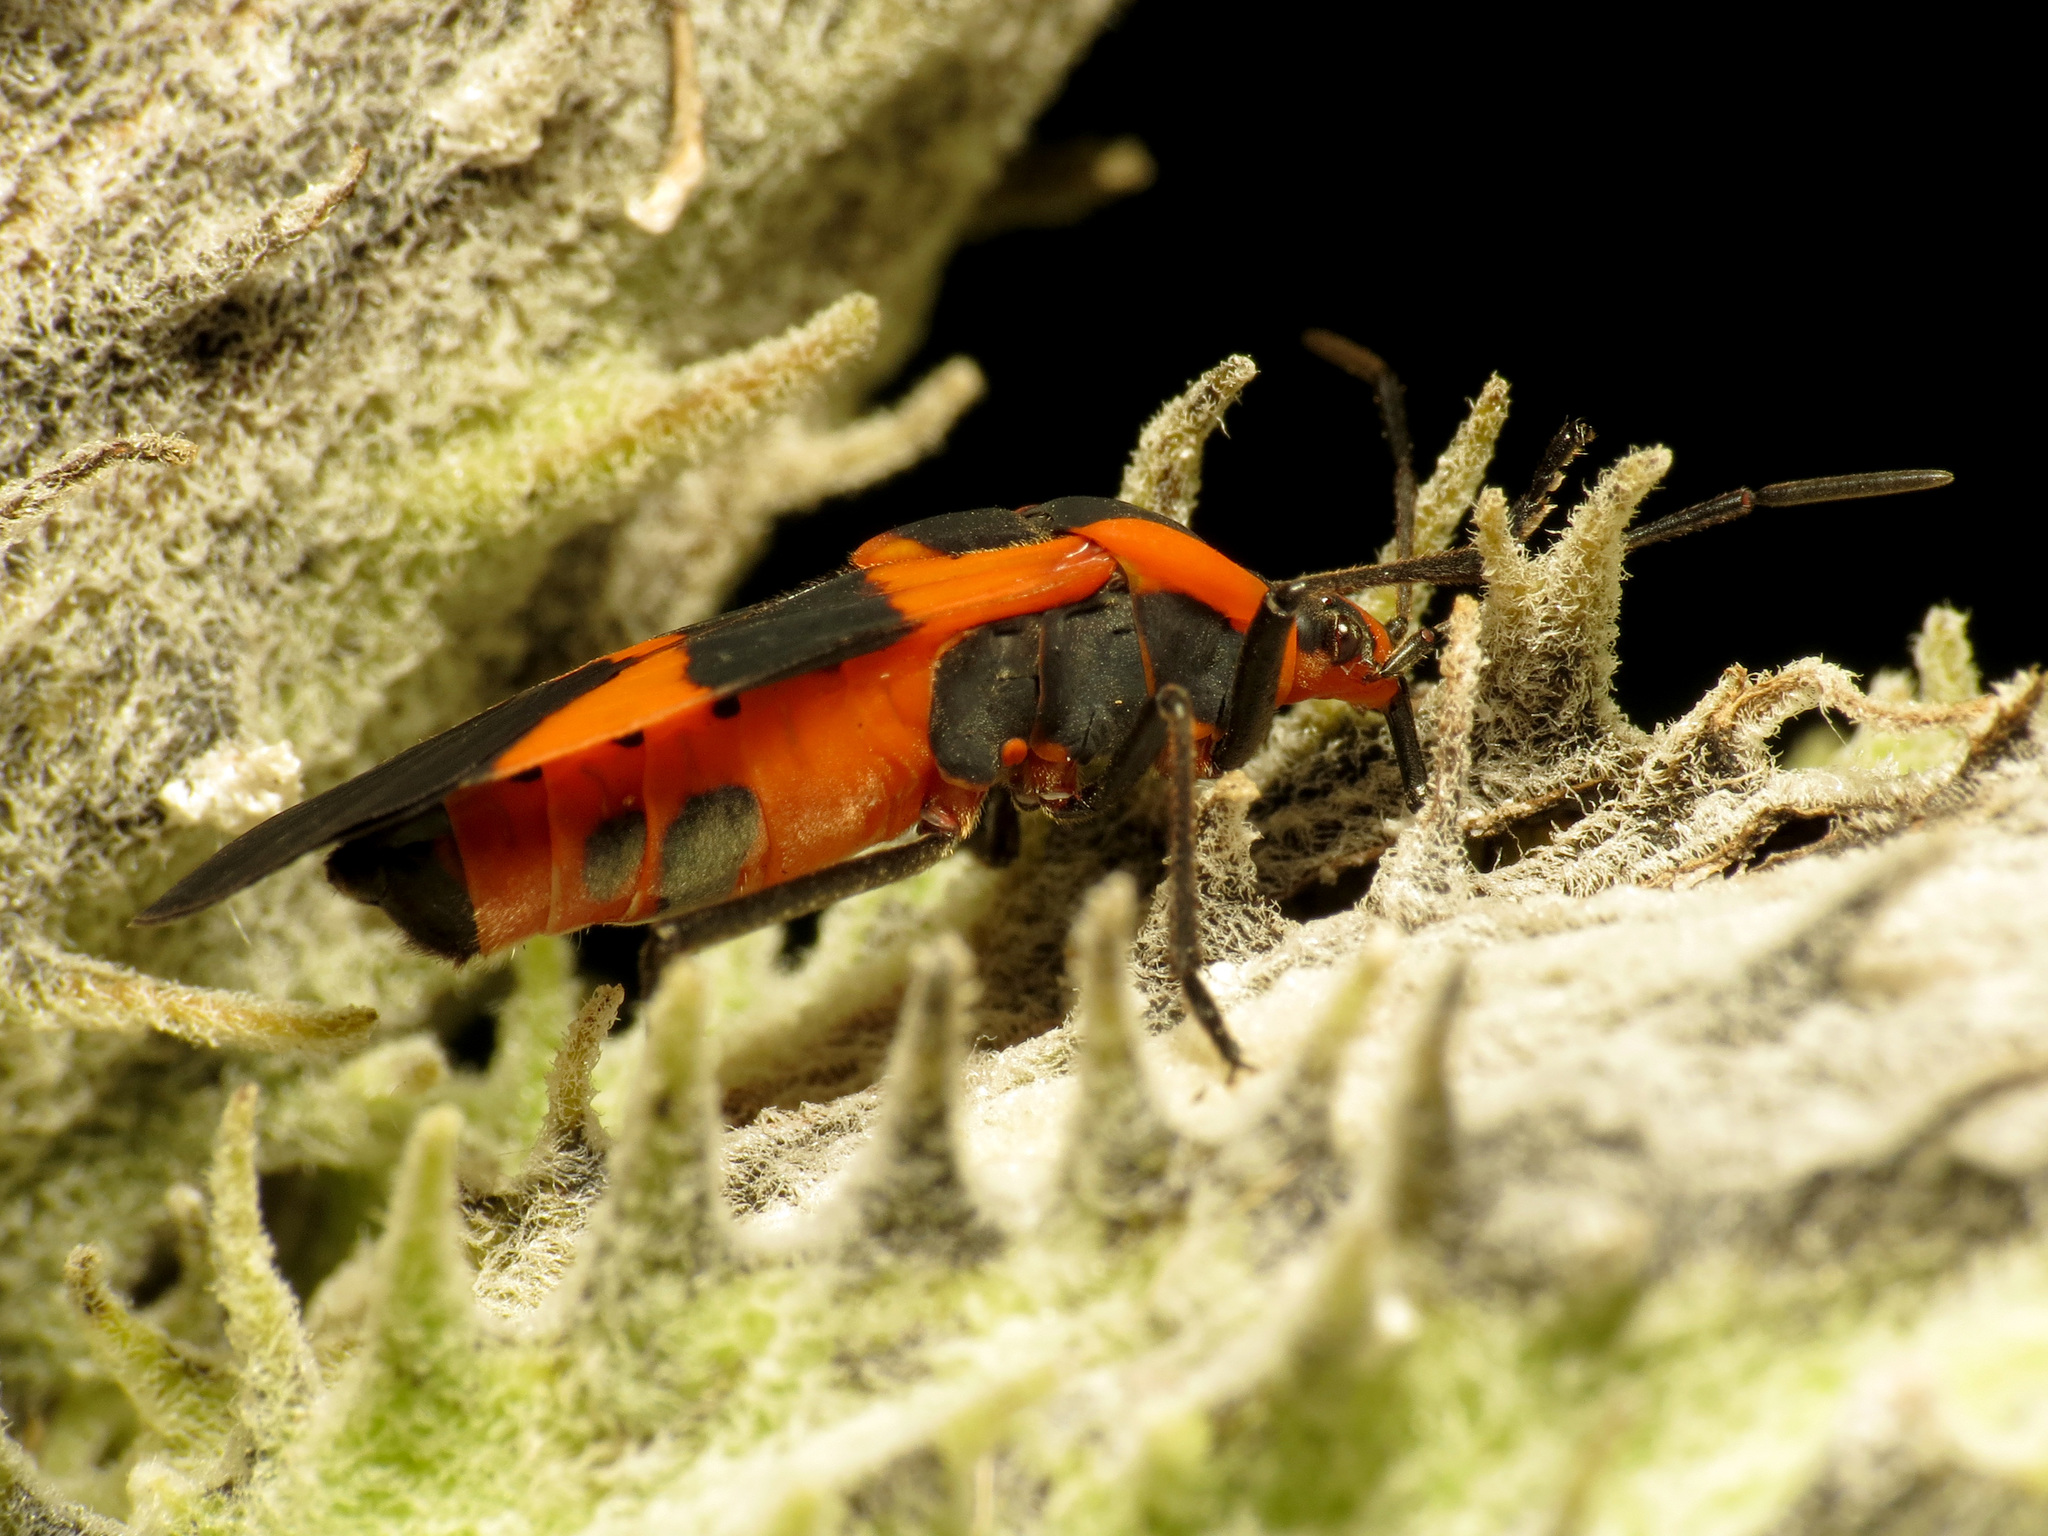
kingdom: Animalia
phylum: Arthropoda
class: Insecta
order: Hemiptera
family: Lygaeidae
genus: Oncopeltus
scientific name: Oncopeltus fasciatus
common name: Large milkweed bug
